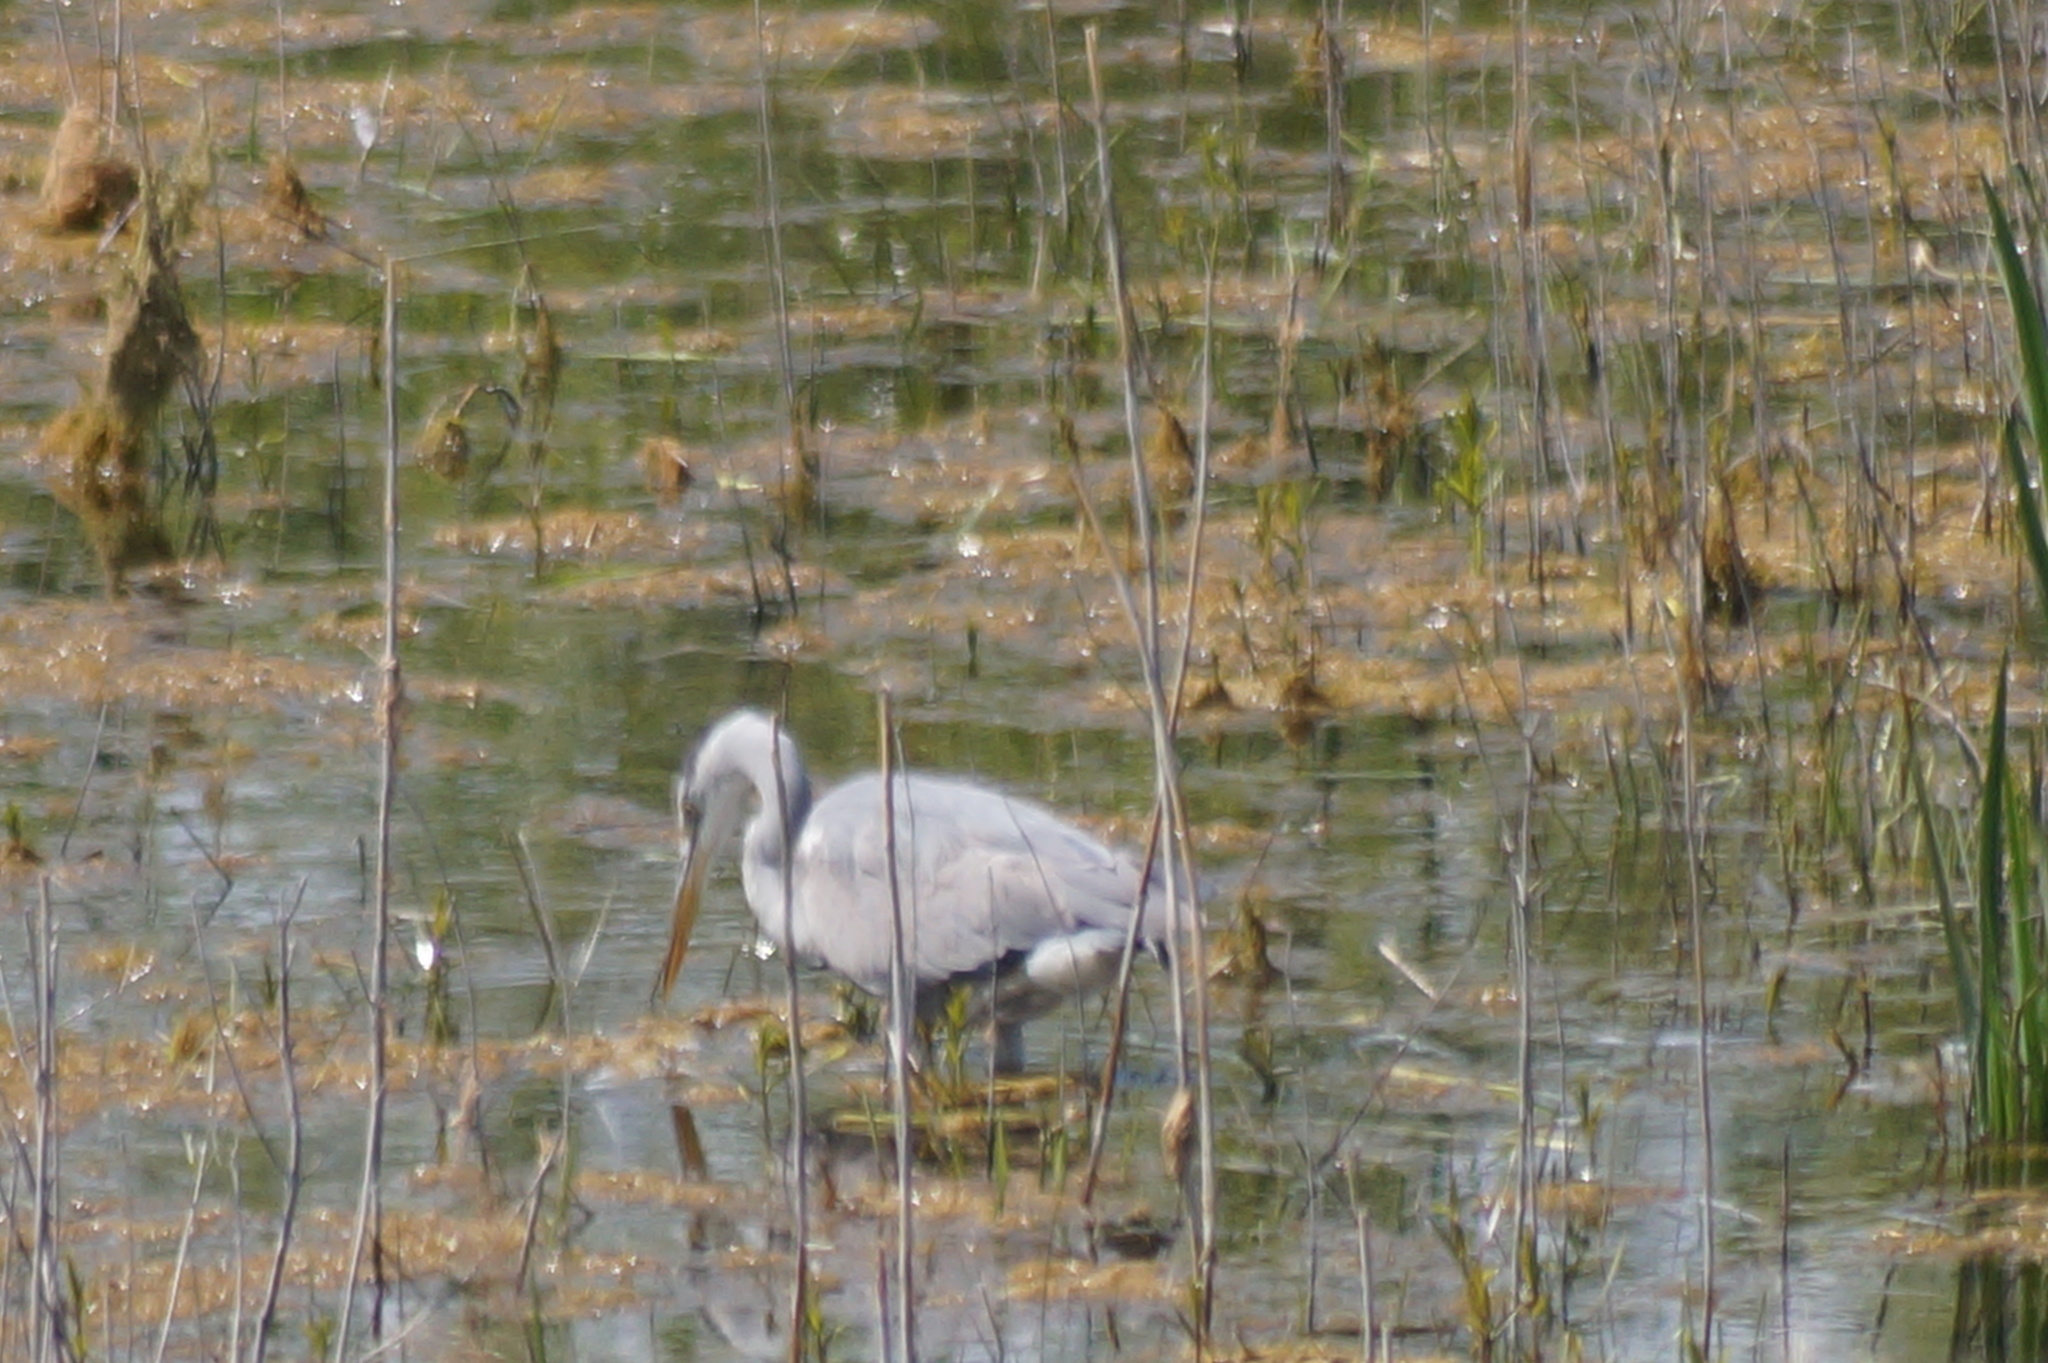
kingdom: Animalia
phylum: Chordata
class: Aves
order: Pelecaniformes
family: Ardeidae
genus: Ardea
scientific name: Ardea cinerea
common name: Grey heron
